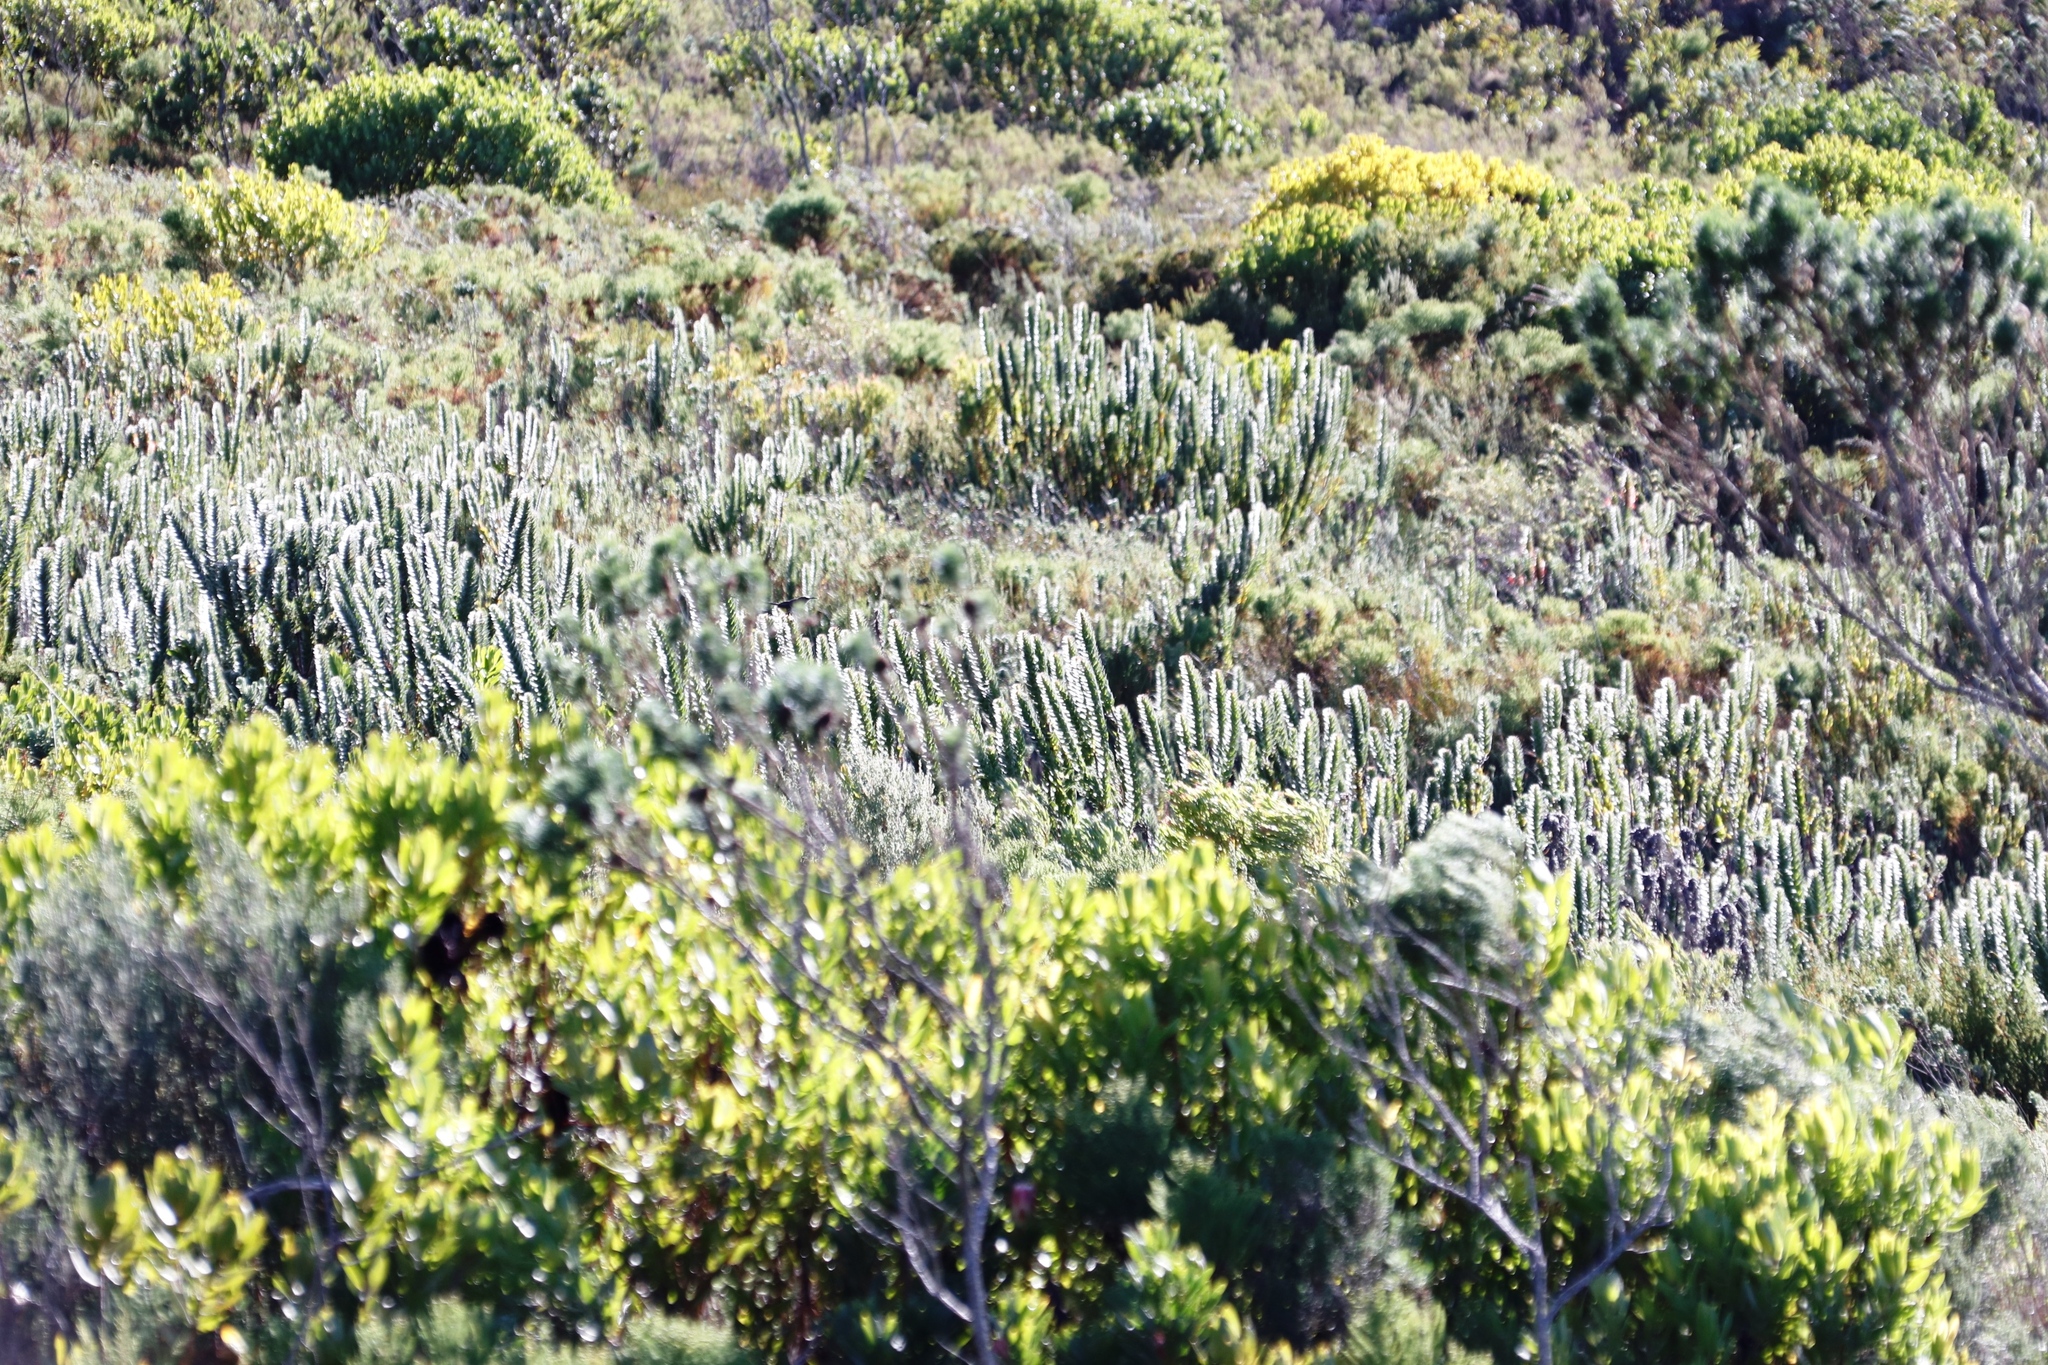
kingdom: Plantae
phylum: Tracheophyta
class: Magnoliopsida
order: Proteales
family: Proteaceae
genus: Mimetes
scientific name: Mimetes hirtus
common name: Marsh pagoda
